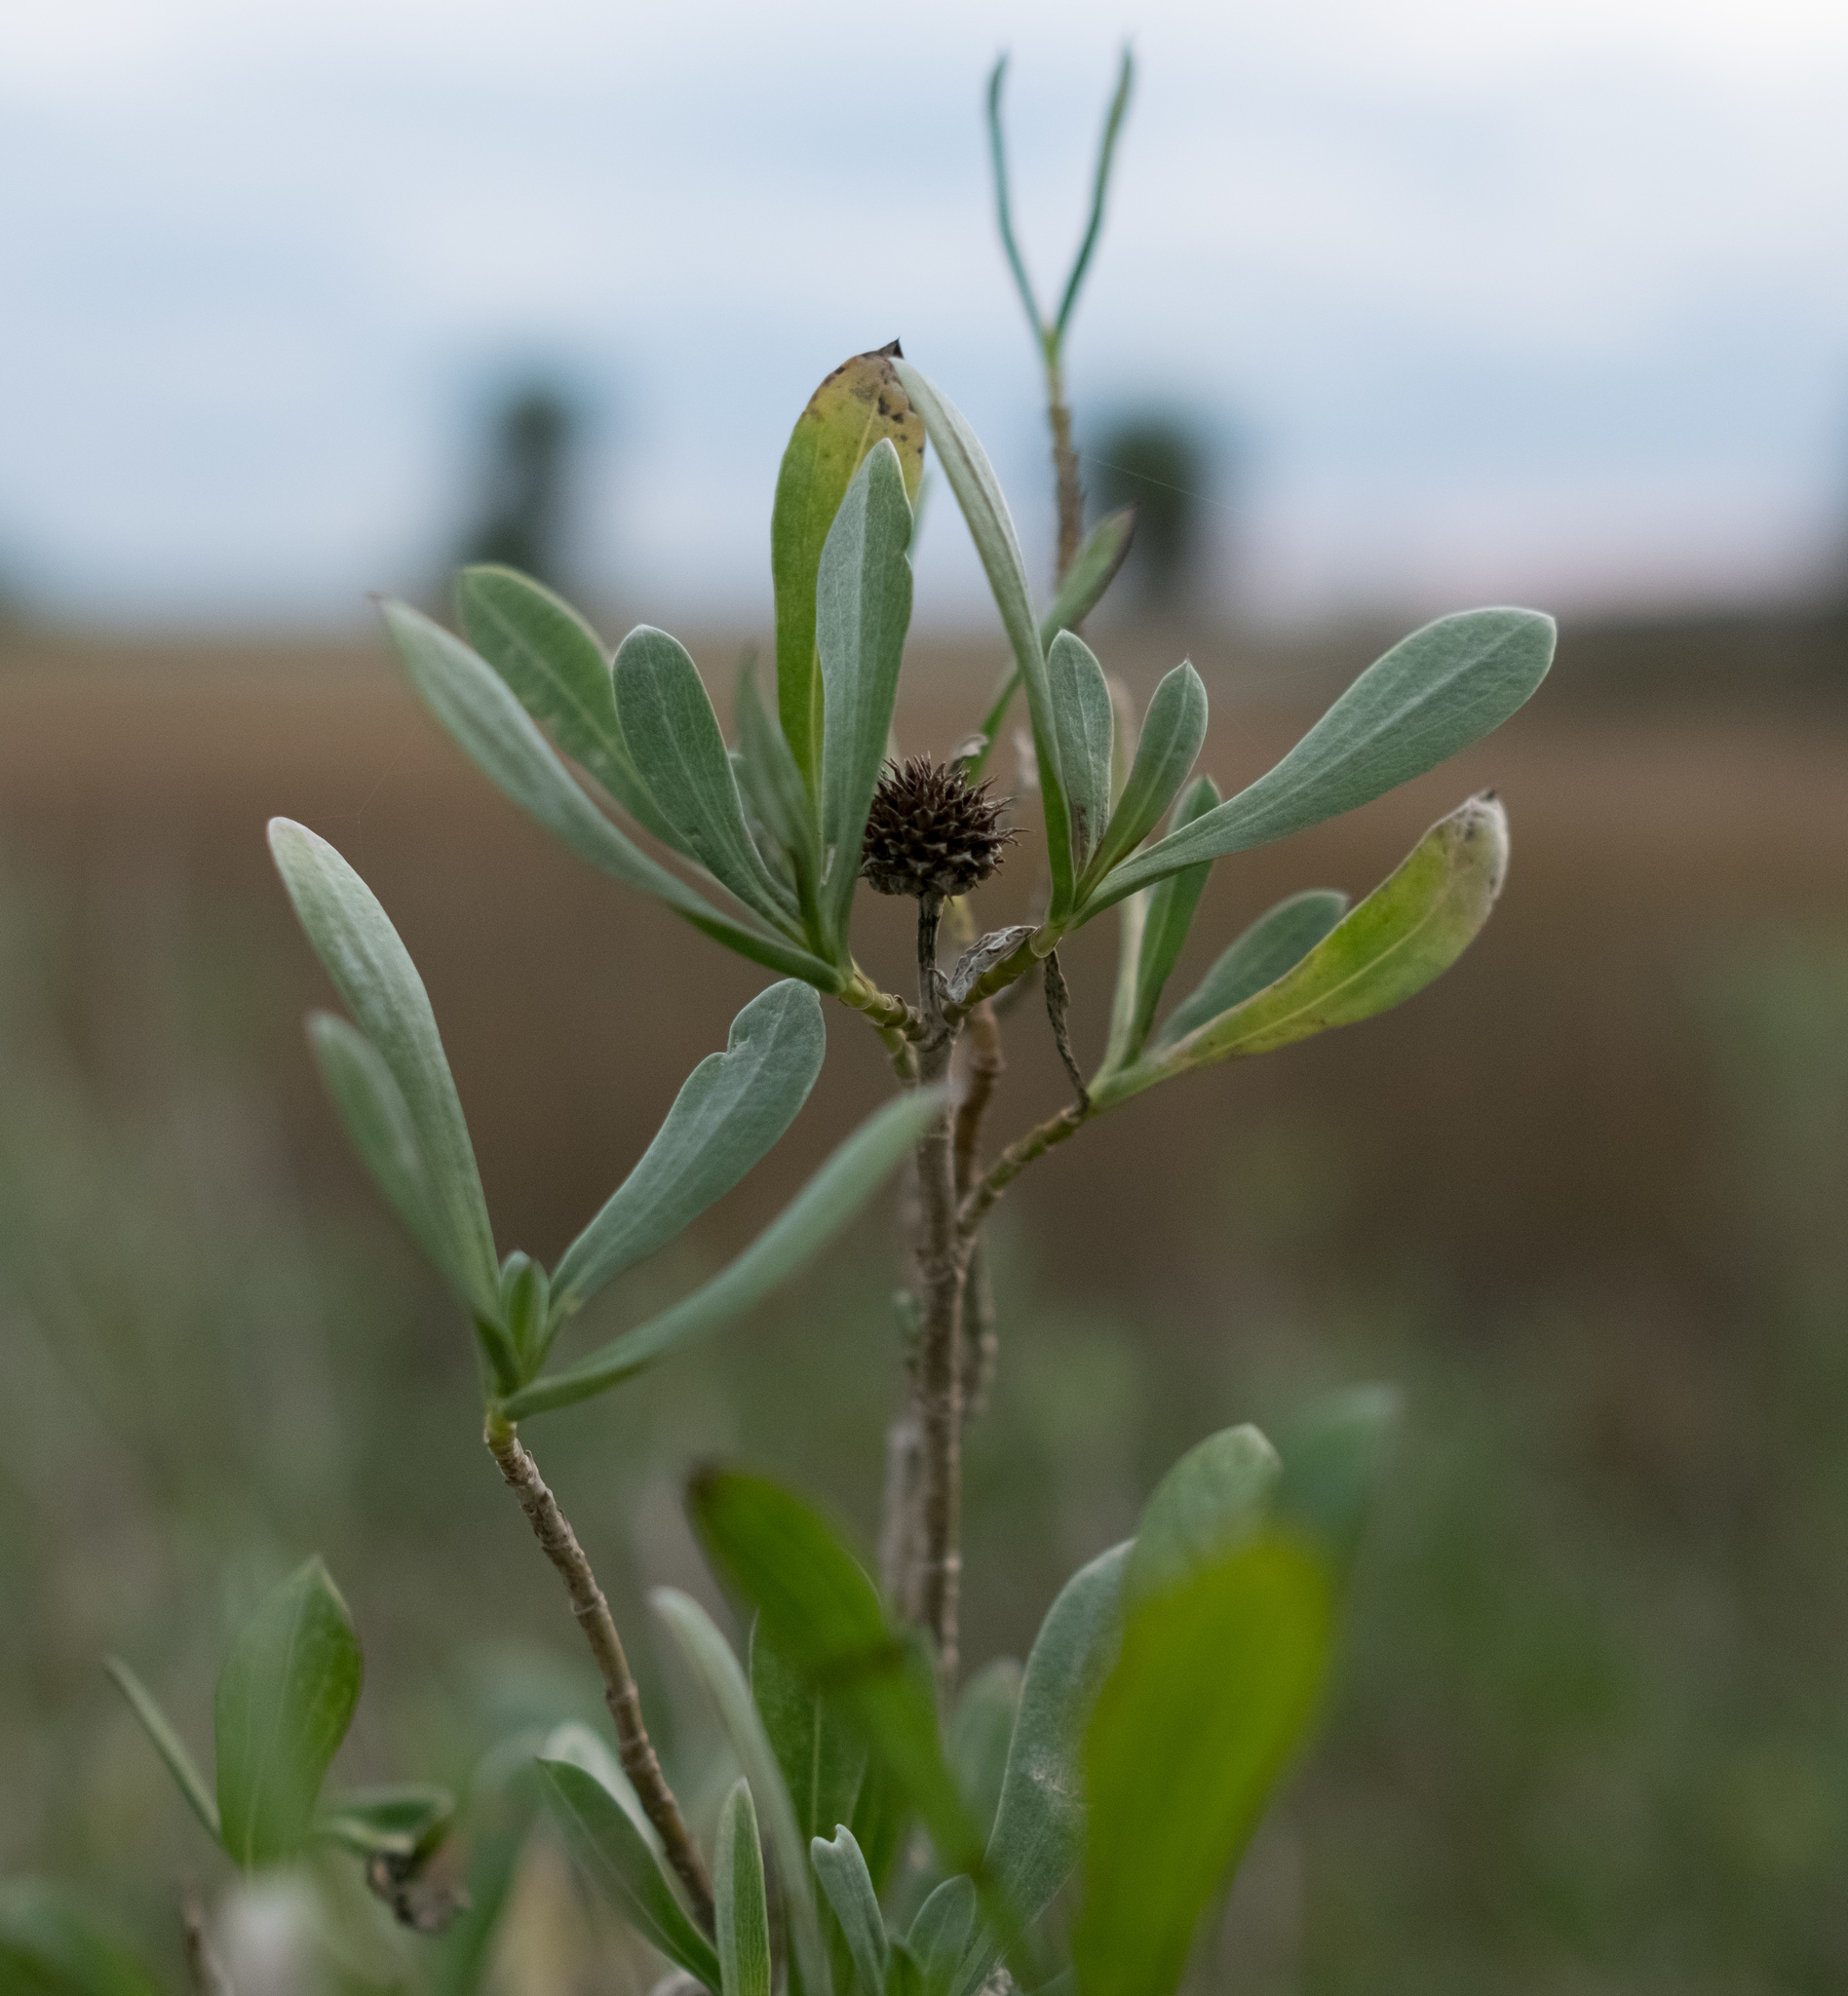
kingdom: Plantae
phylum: Tracheophyta
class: Magnoliopsida
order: Asterales
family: Asteraceae
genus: Borrichia
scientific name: Borrichia frutescens
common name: Sea oxeye
